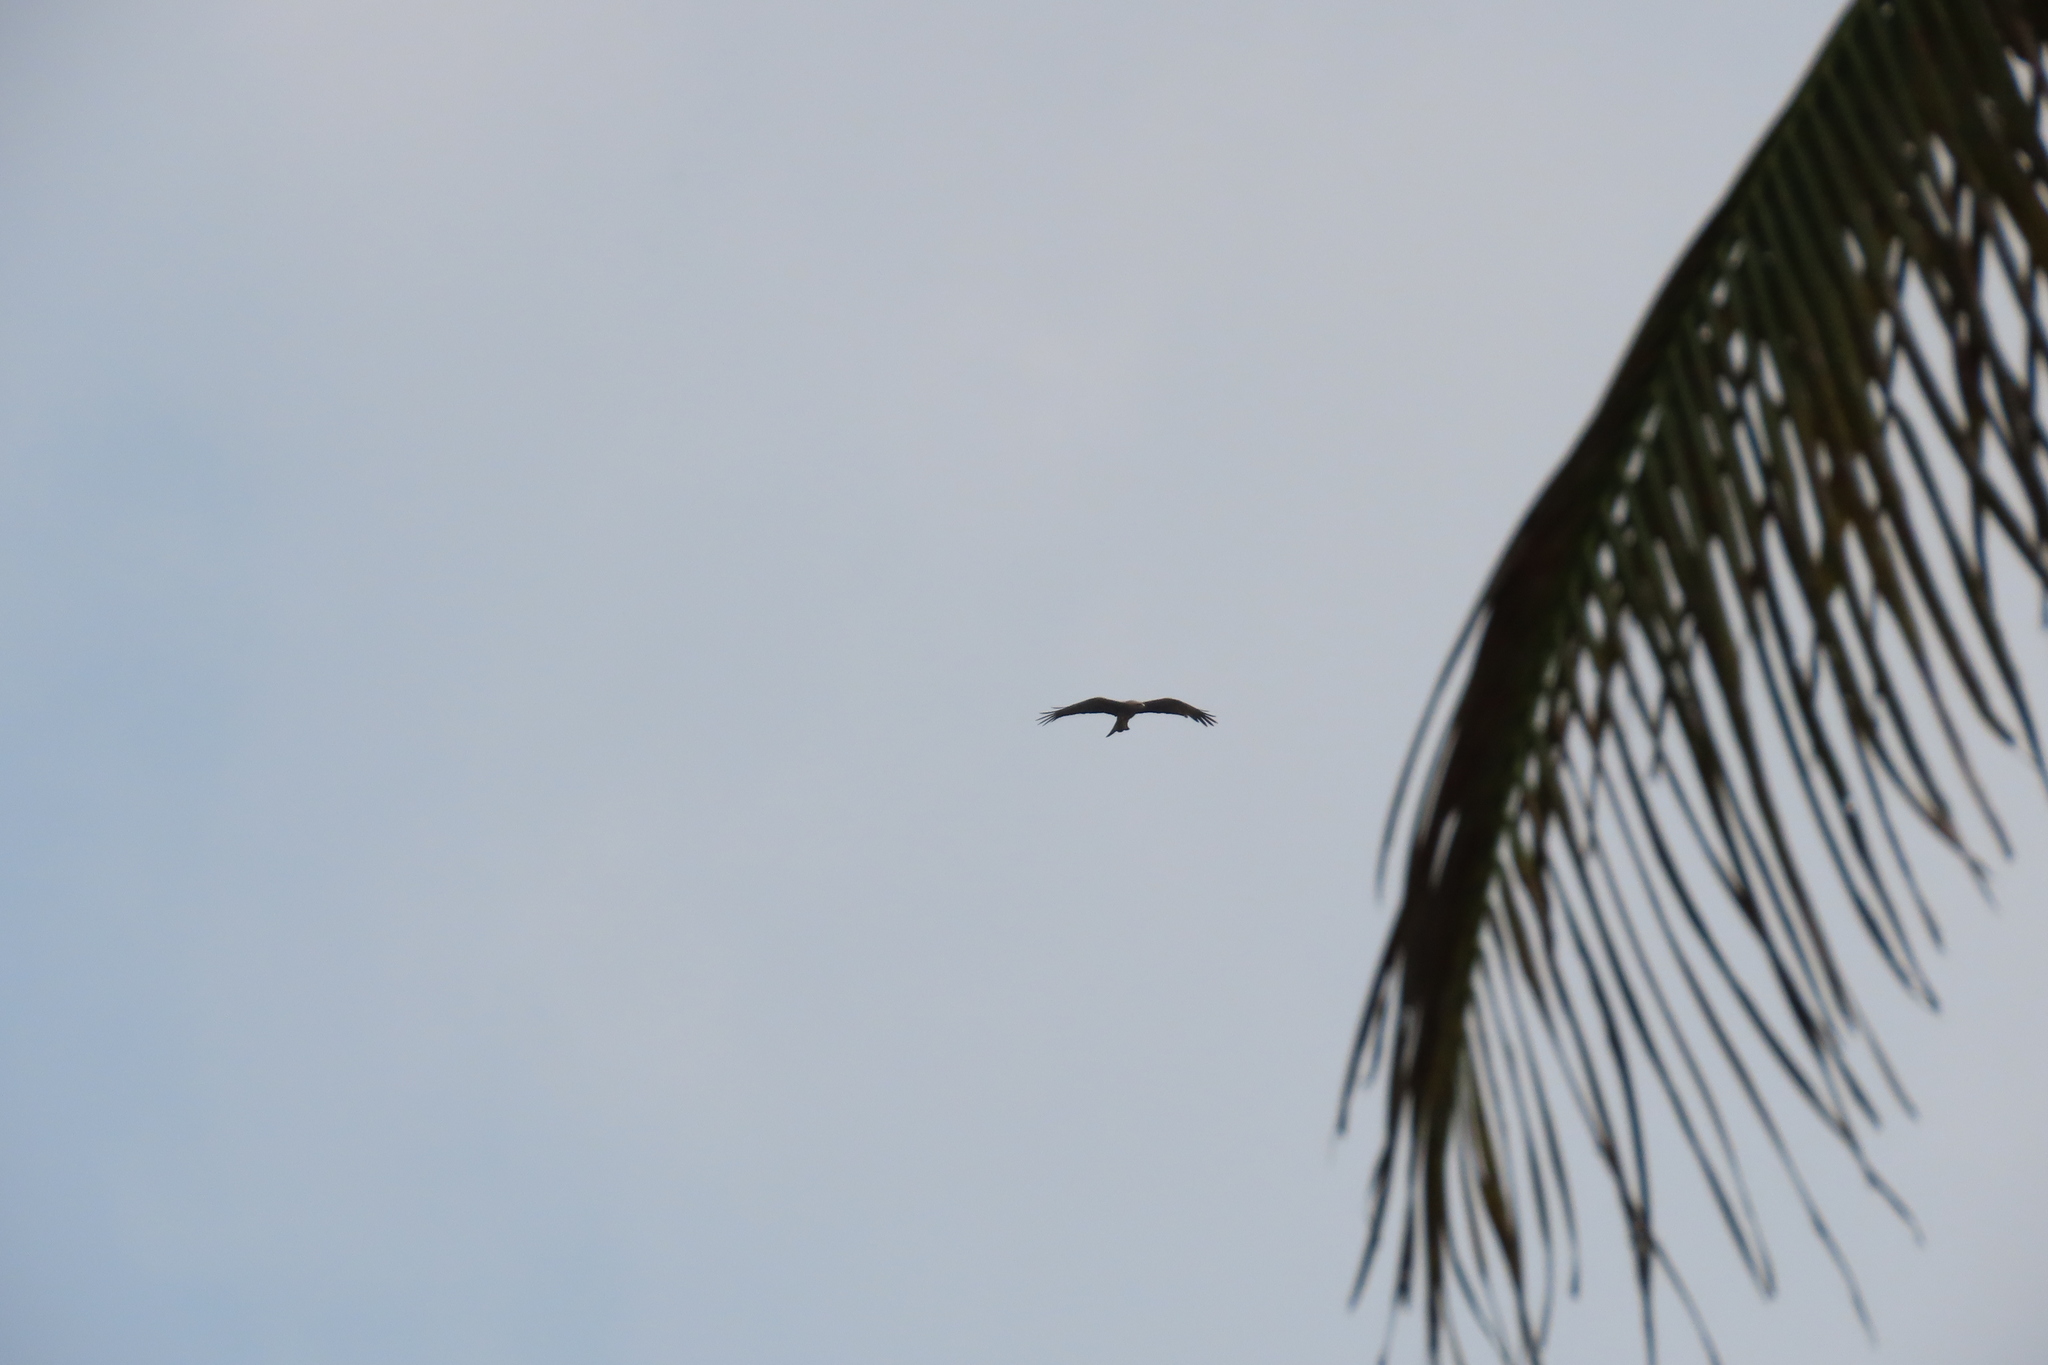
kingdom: Animalia
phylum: Chordata
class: Aves
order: Accipitriformes
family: Accipitridae
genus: Milvus
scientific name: Milvus migrans
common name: Black kite
